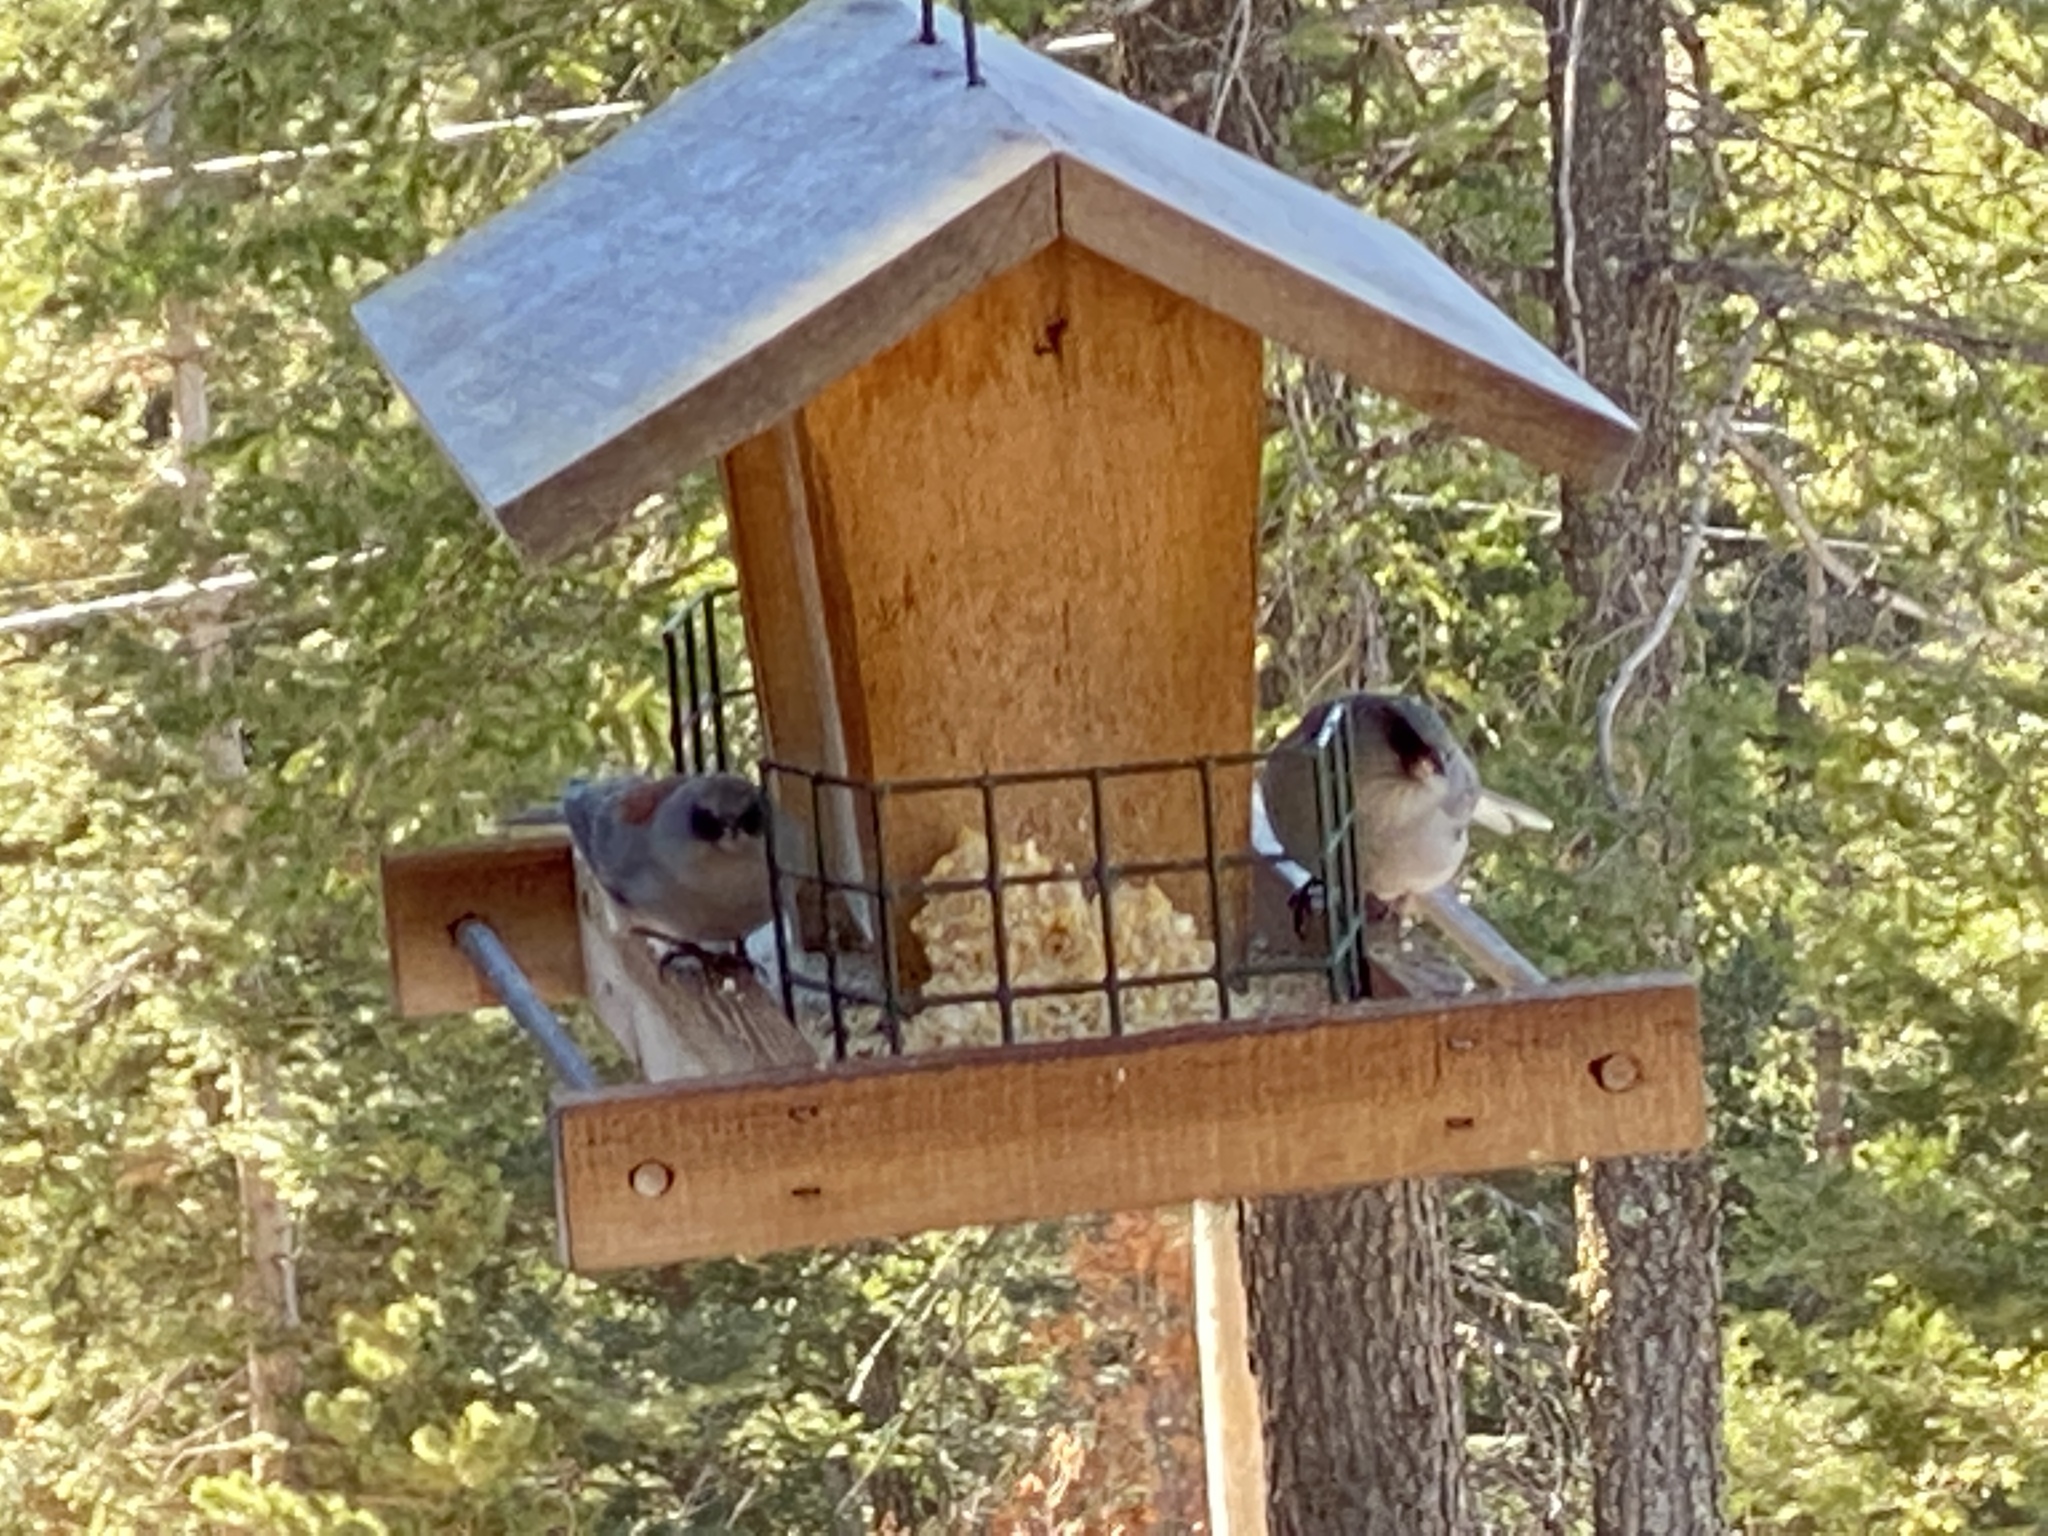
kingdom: Animalia
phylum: Chordata
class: Aves
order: Passeriformes
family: Passerellidae
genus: Junco
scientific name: Junco hyemalis
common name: Dark-eyed junco
